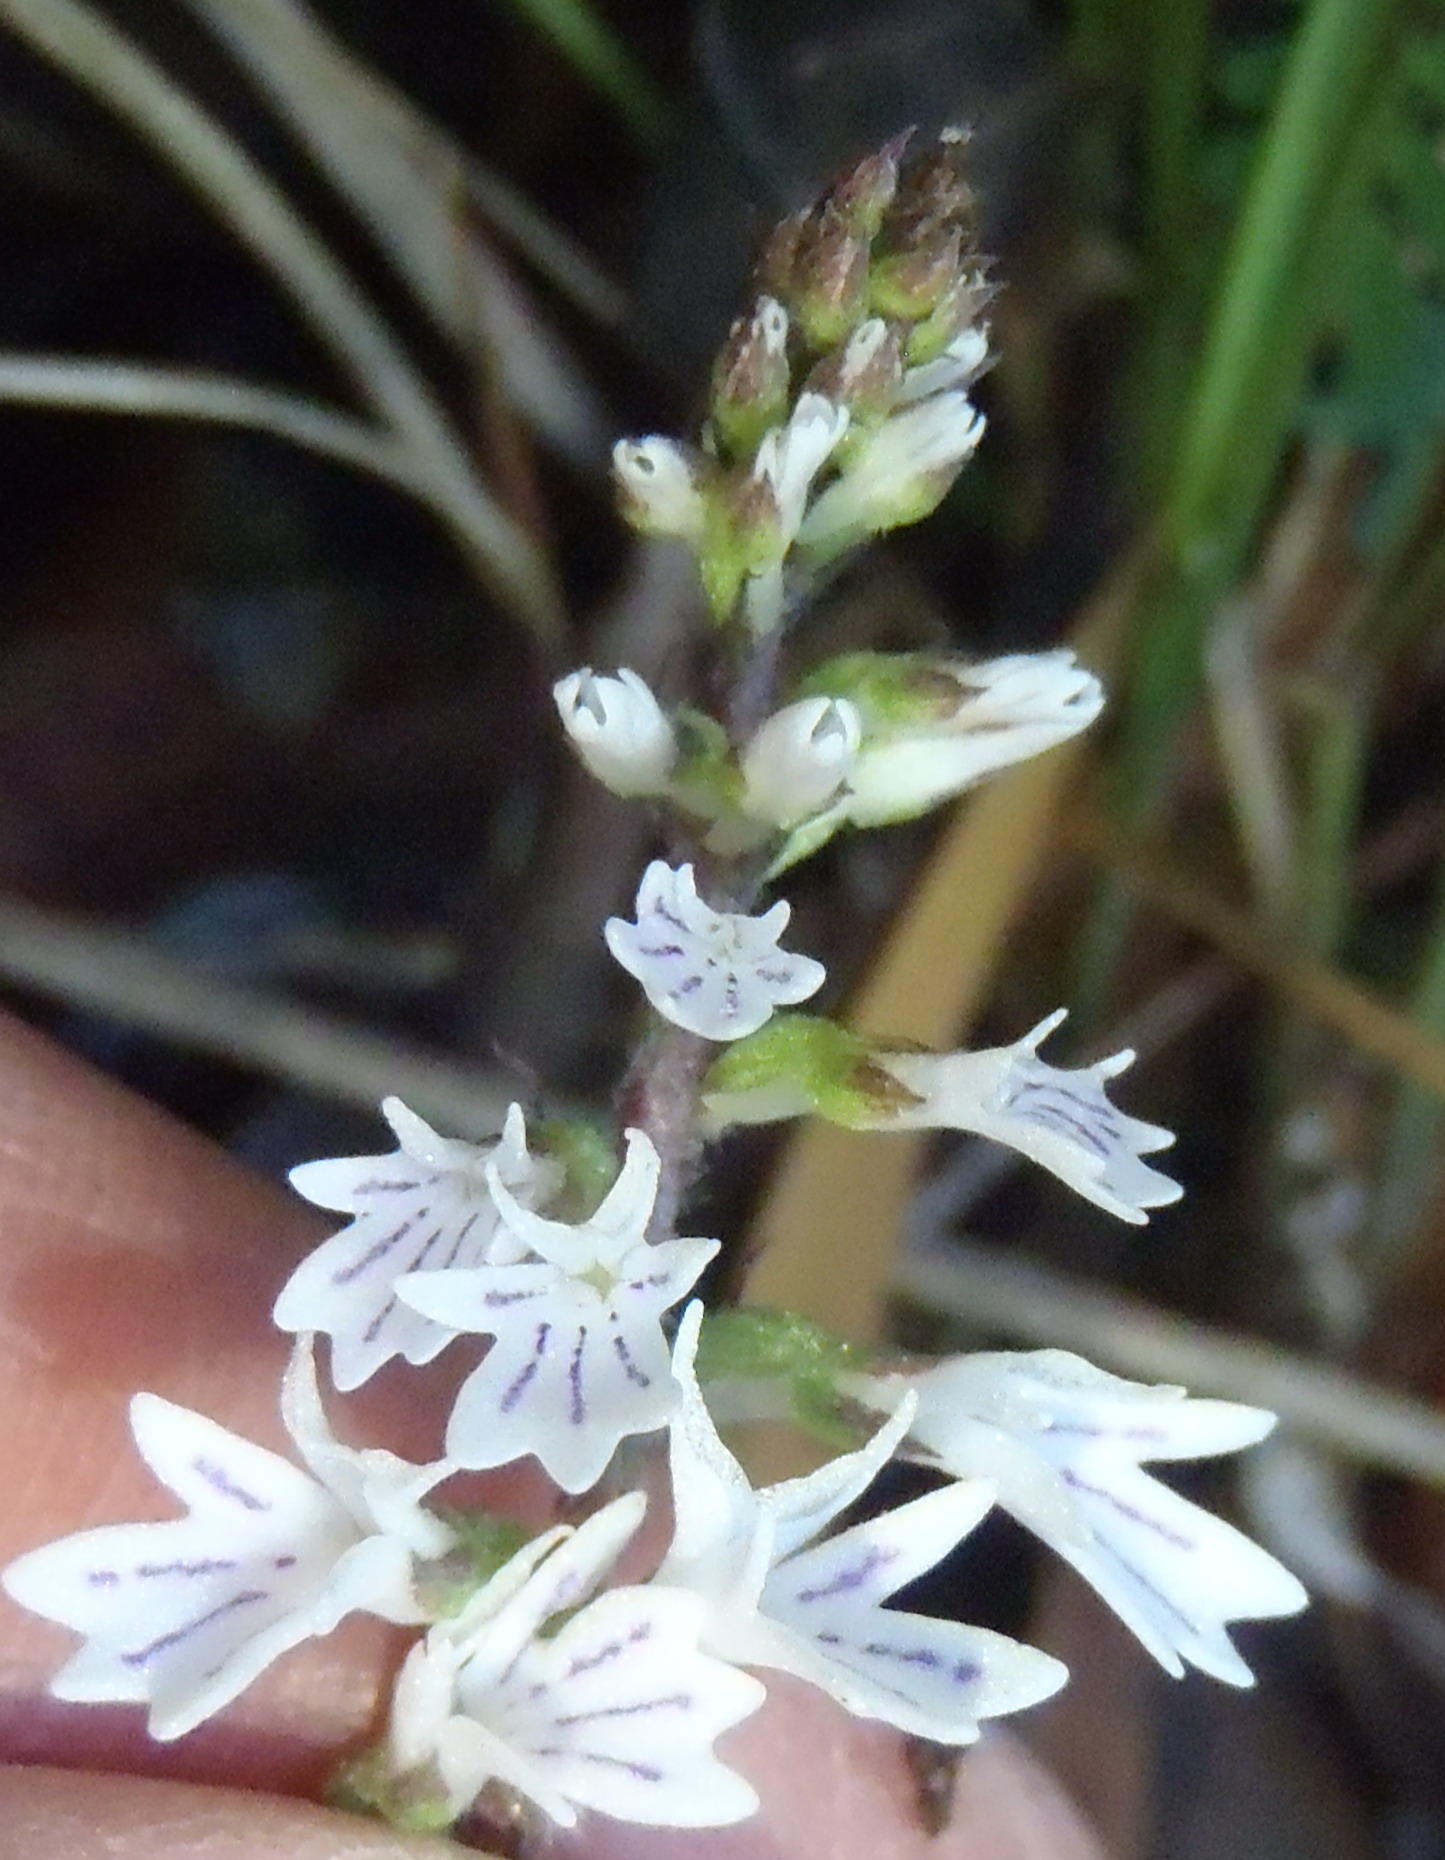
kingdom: Plantae
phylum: Tracheophyta
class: Liliopsida
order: Asparagales
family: Orchidaceae
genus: Holothrix
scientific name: Holothrix orthoceras
